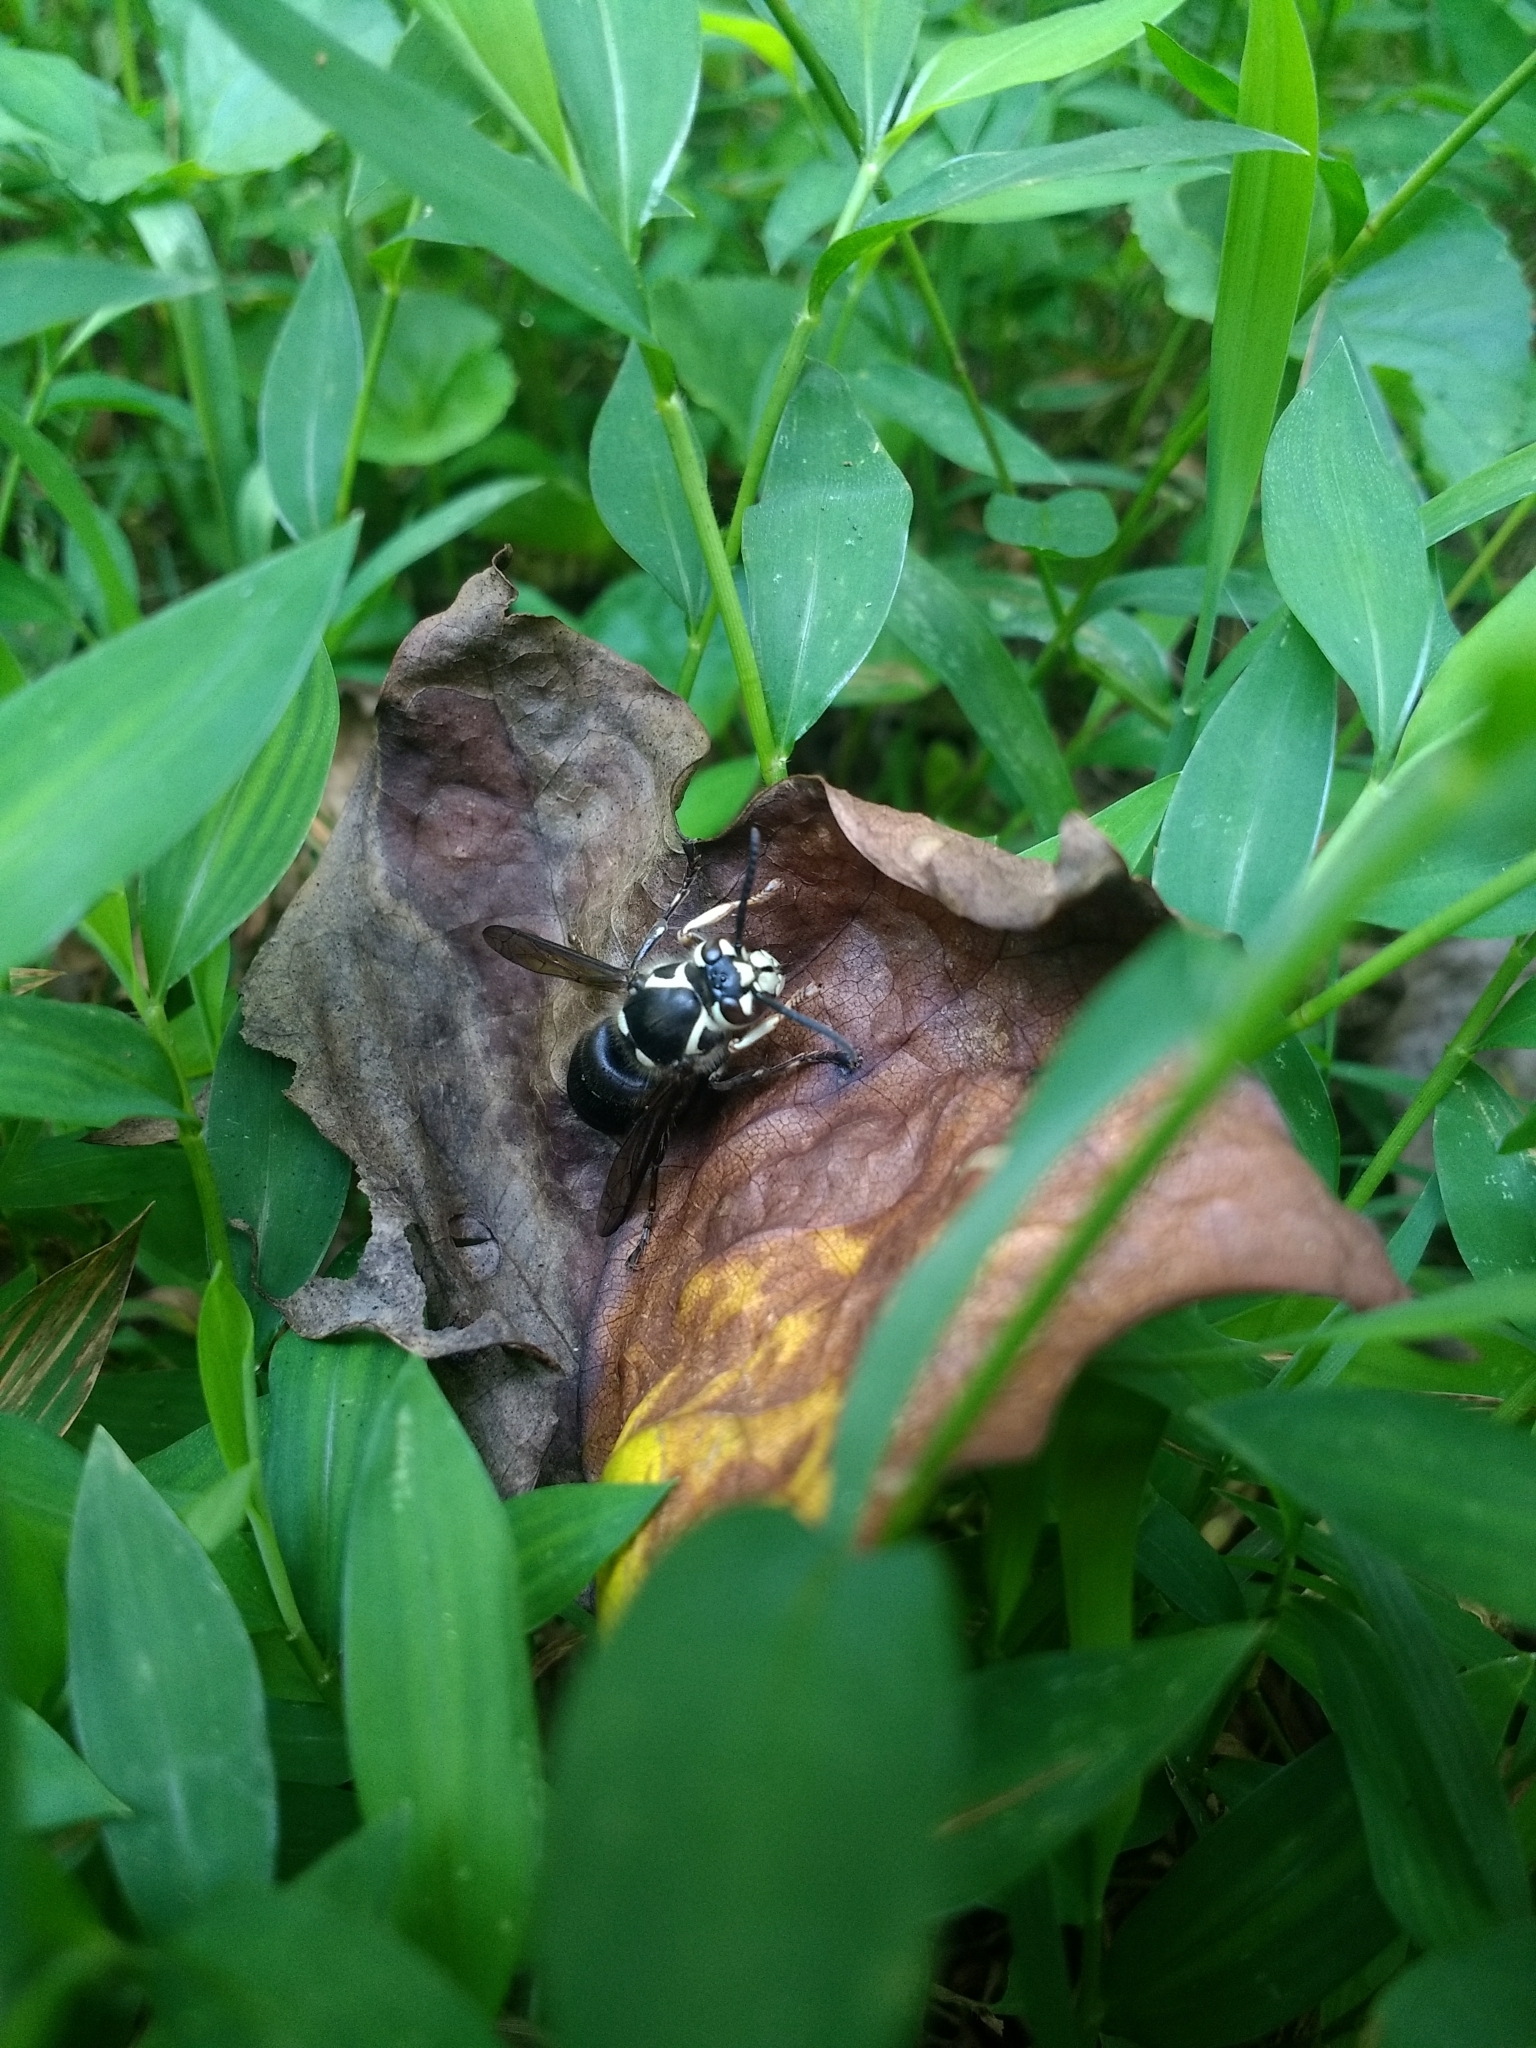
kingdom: Animalia
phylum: Arthropoda
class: Insecta
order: Hymenoptera
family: Vespidae
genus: Dolichovespula
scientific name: Dolichovespula maculata
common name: Bald-faced hornet
